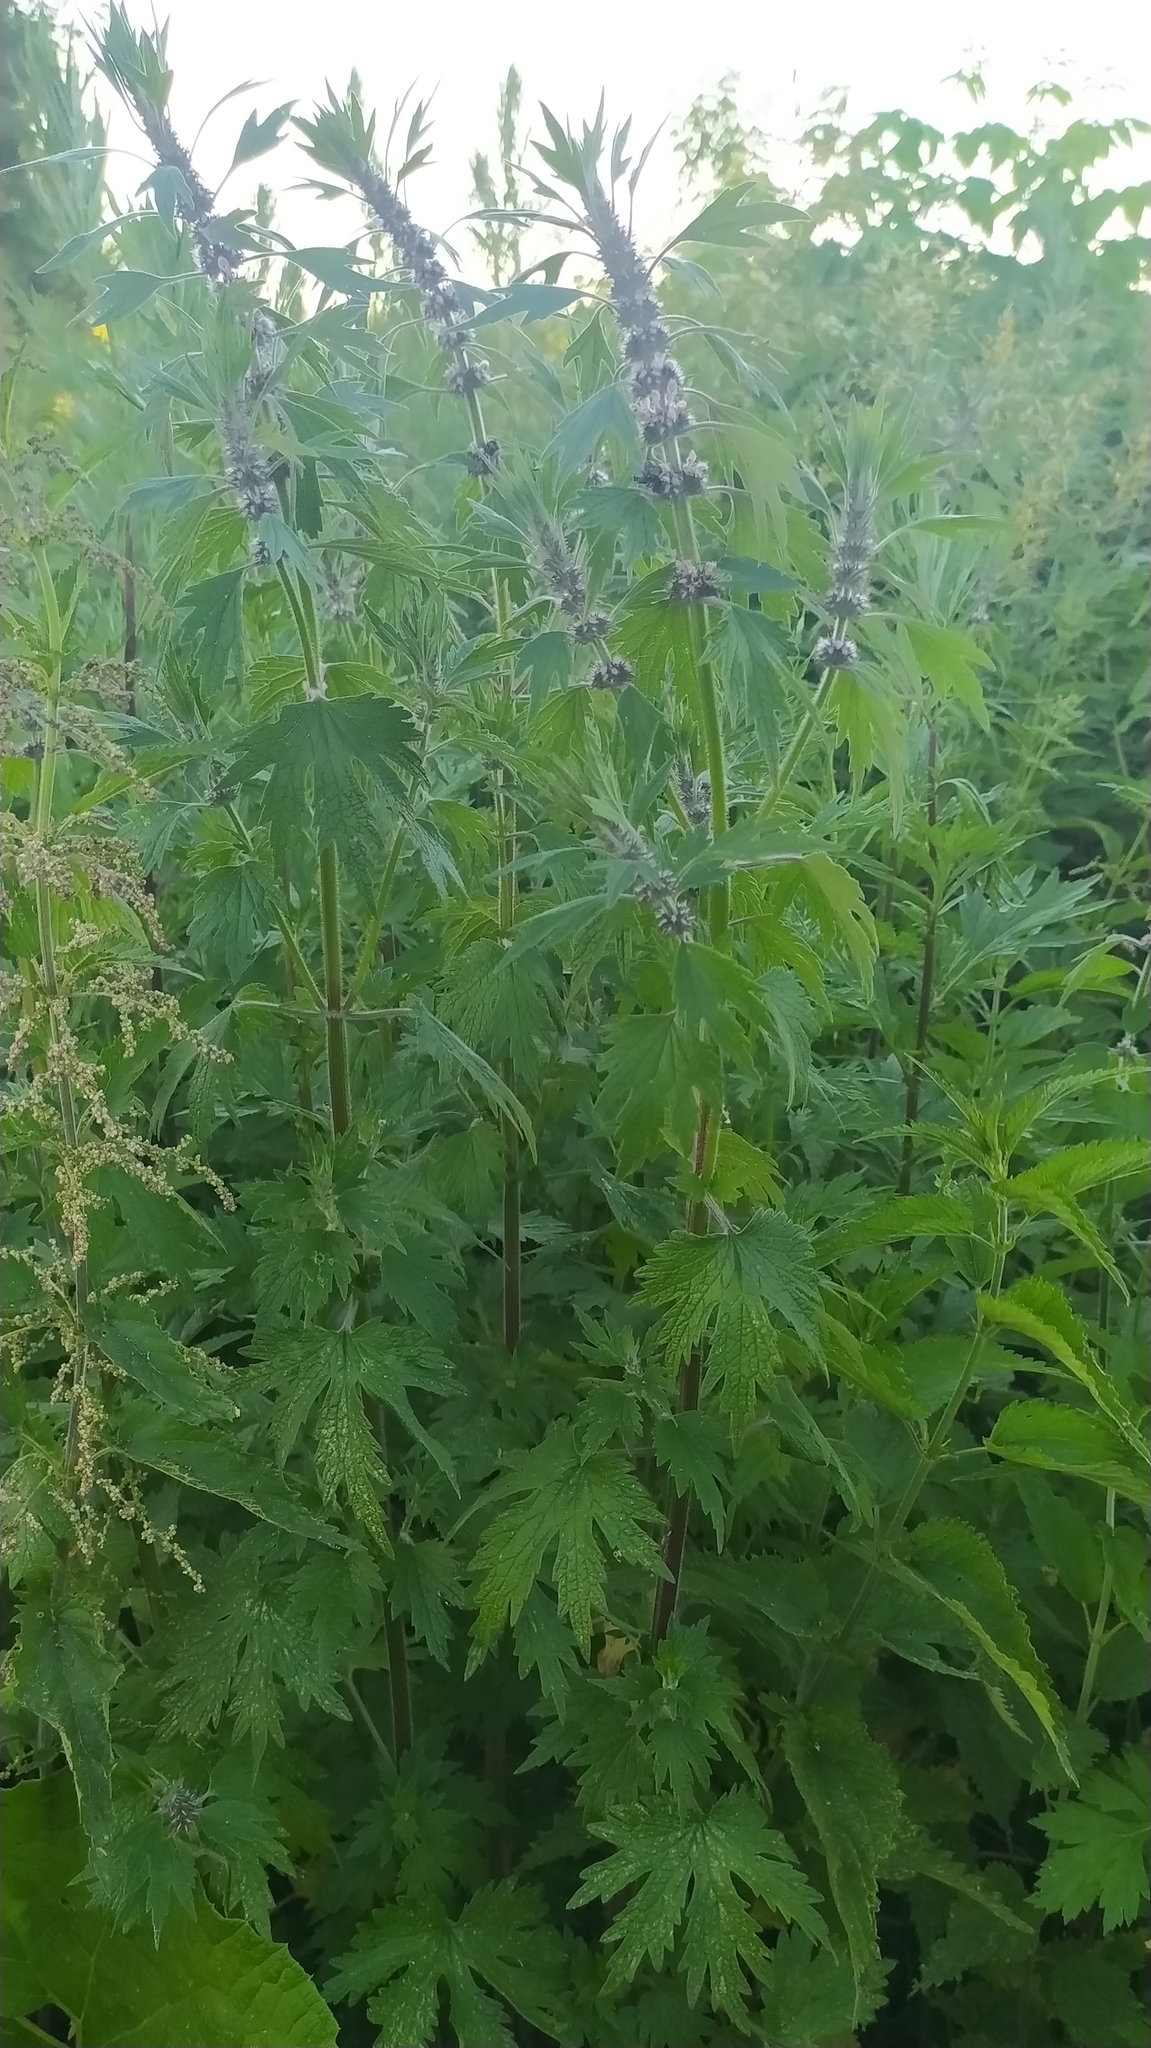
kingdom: Plantae
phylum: Tracheophyta
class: Magnoliopsida
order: Lamiales
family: Lamiaceae
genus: Leonurus
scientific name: Leonurus quinquelobatus
